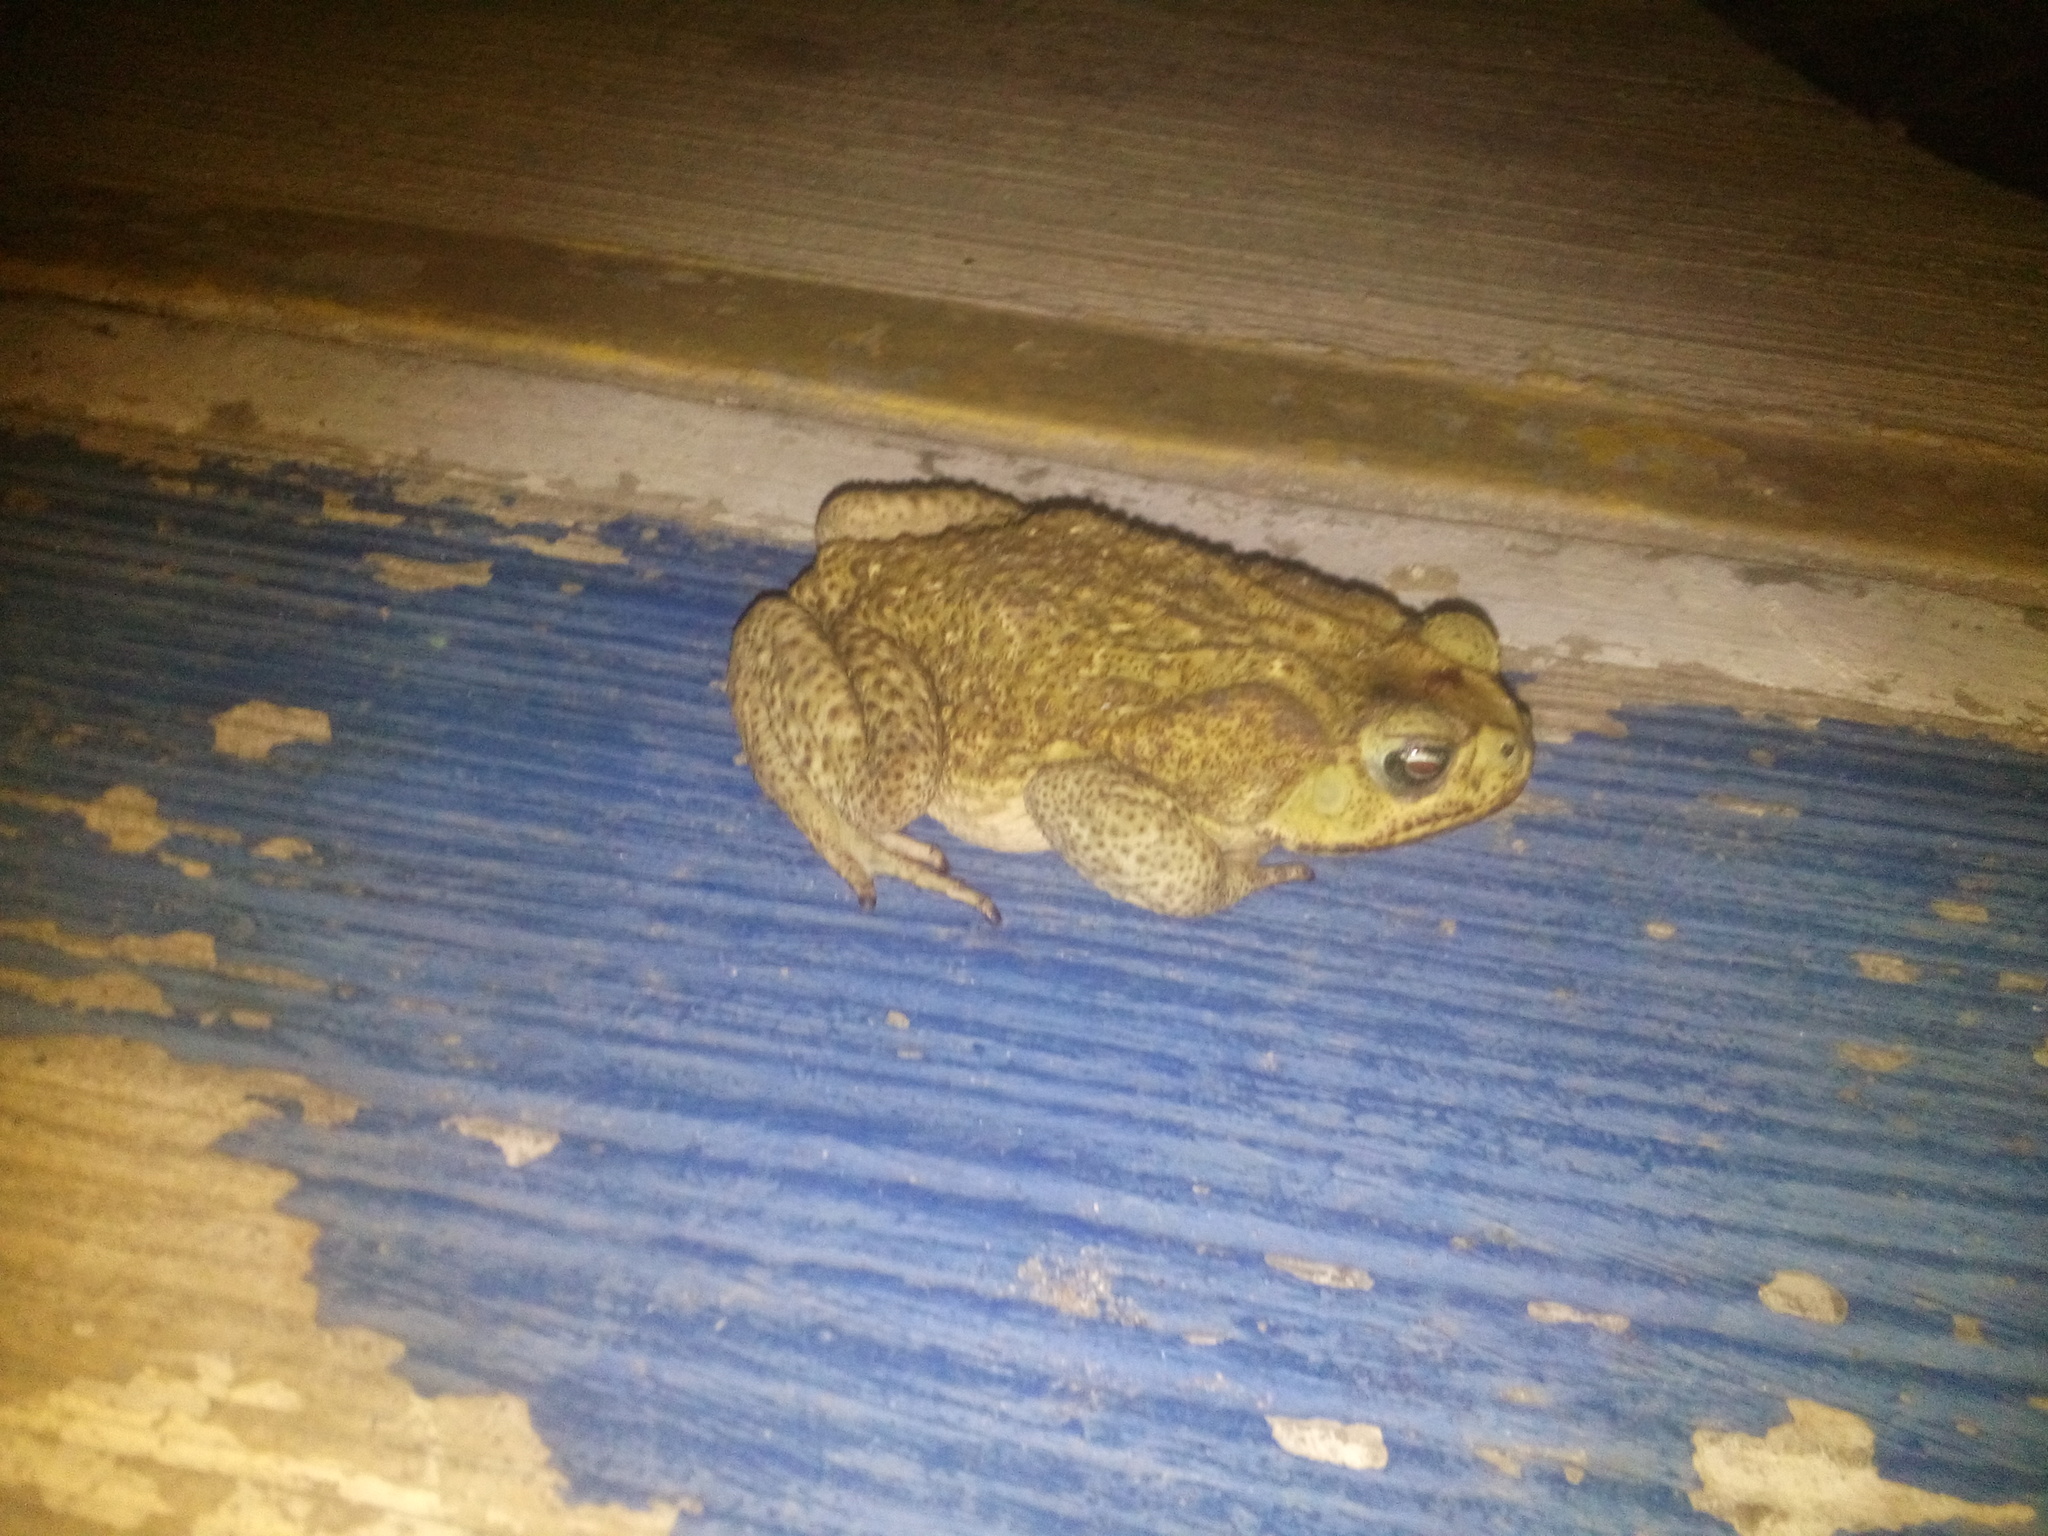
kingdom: Animalia
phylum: Chordata
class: Amphibia
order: Anura
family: Bufonidae
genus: Rhinella
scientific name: Rhinella horribilis
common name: Mesoamerican cane toad
